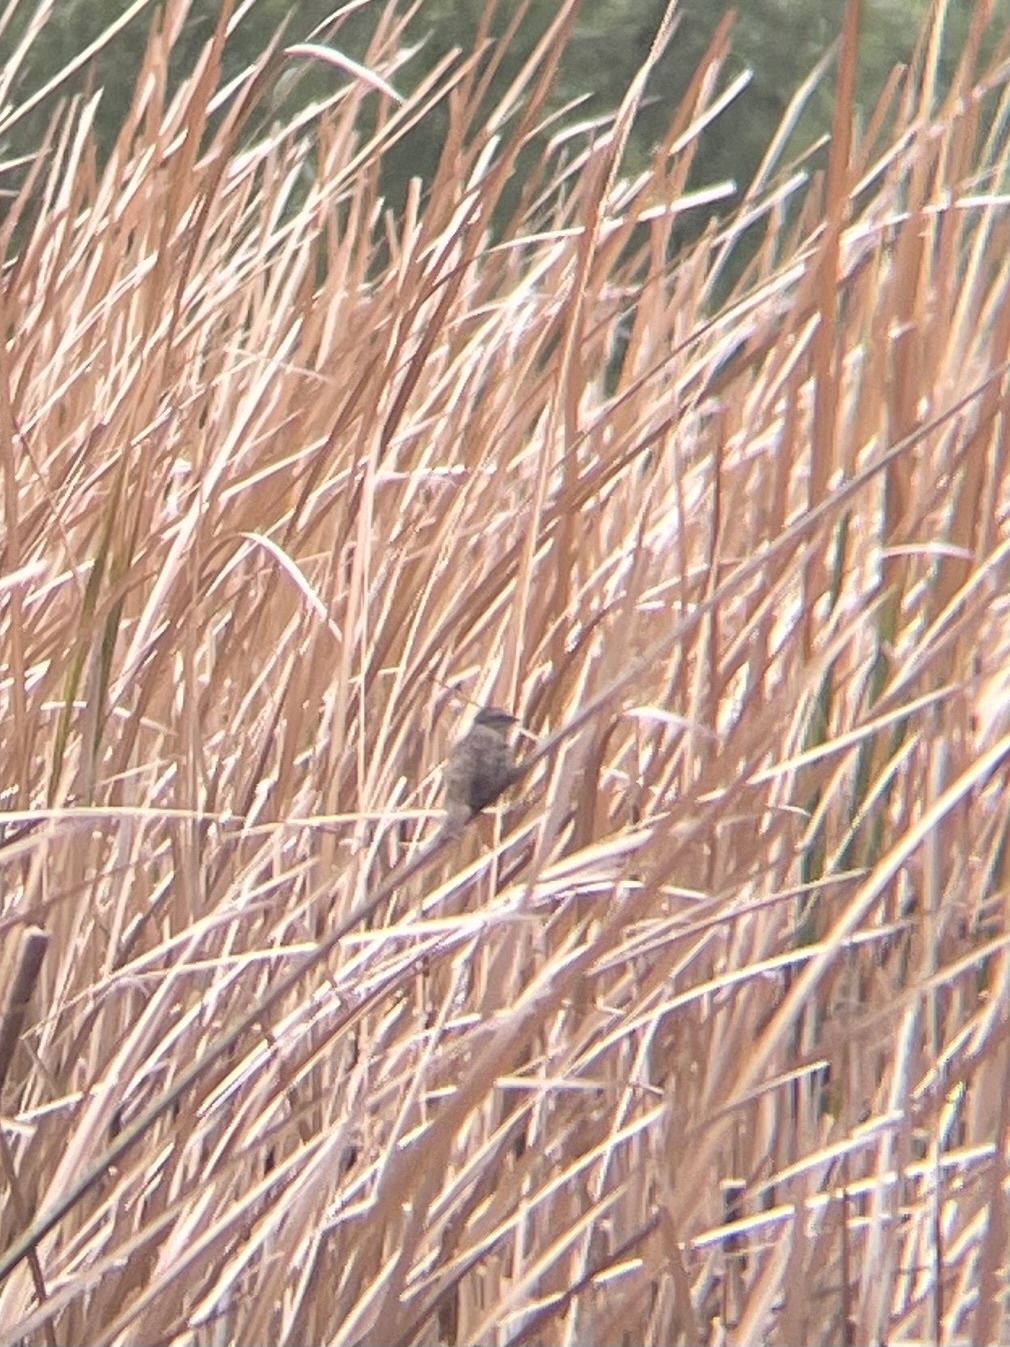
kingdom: Animalia
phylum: Chordata
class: Aves
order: Passeriformes
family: Passerellidae
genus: Melospiza
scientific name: Melospiza melodia
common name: Song sparrow
